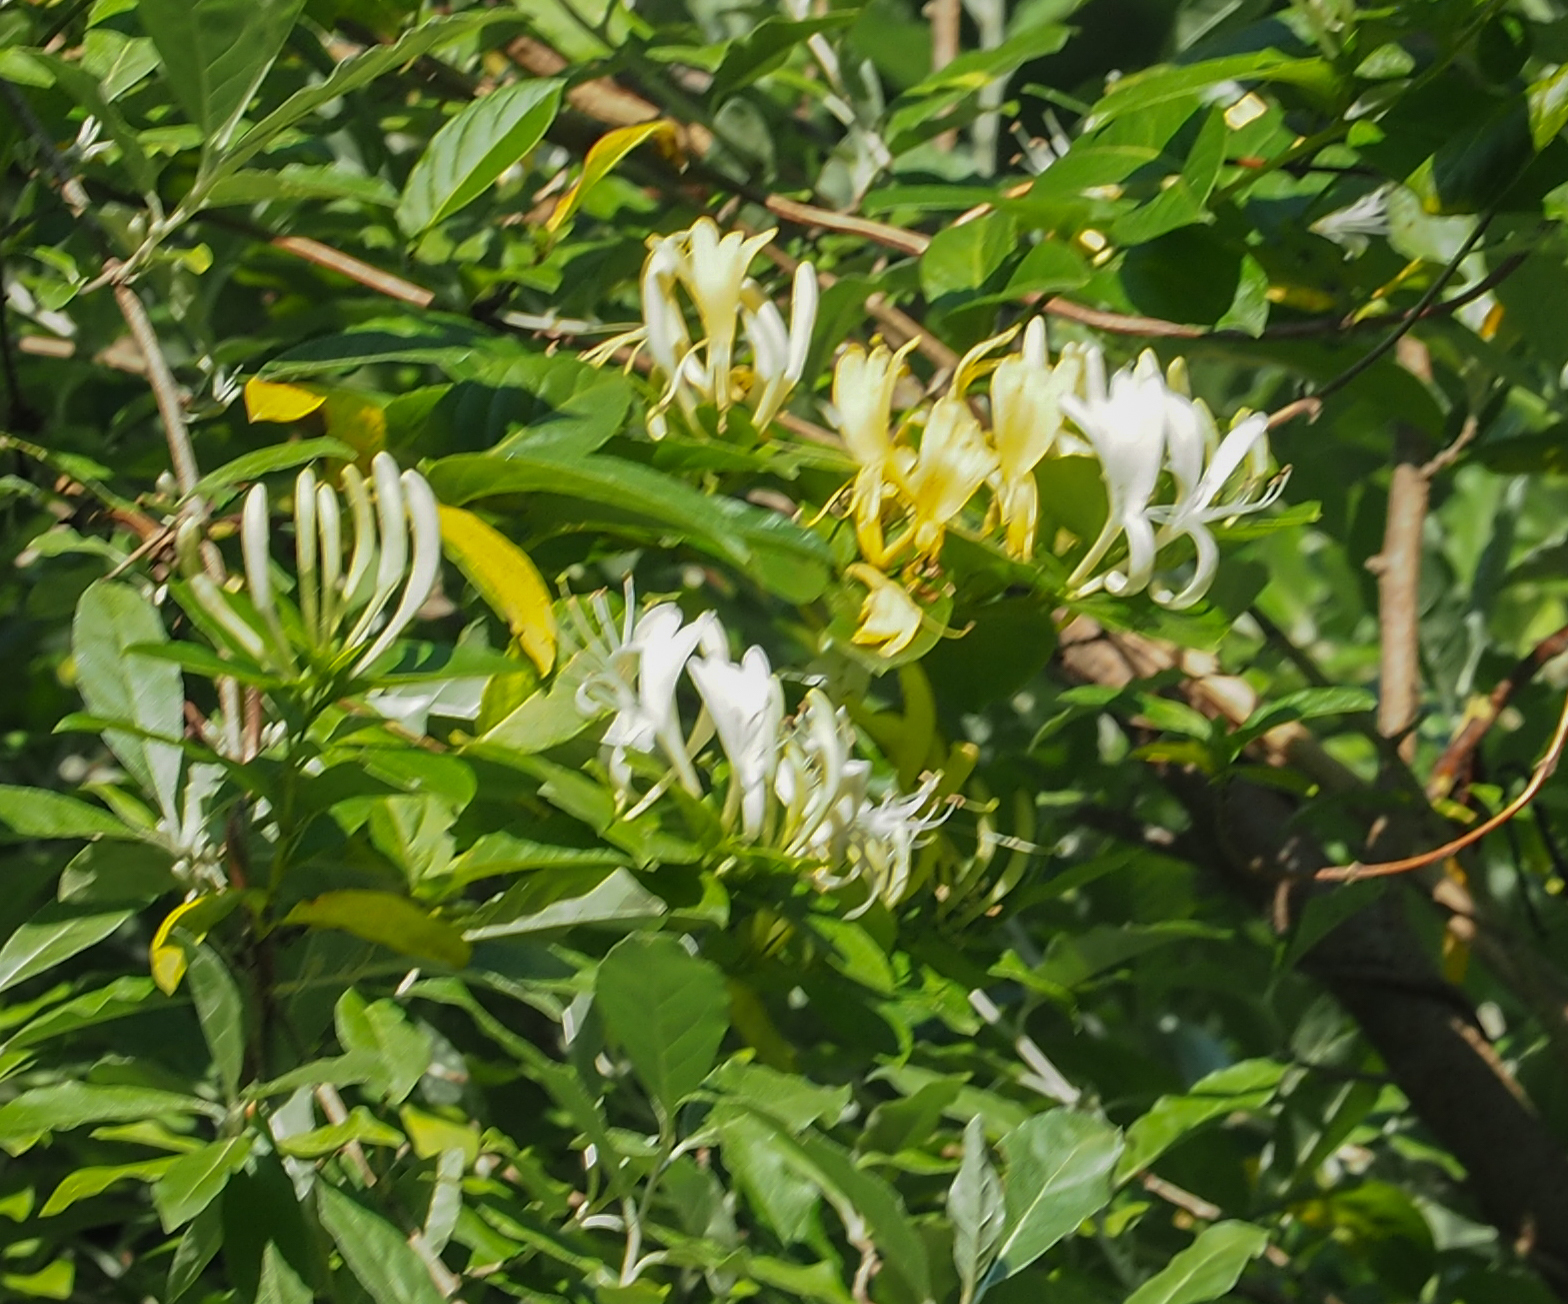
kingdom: Plantae
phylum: Tracheophyta
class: Magnoliopsida
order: Dipsacales
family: Caprifoliaceae
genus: Lonicera
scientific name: Lonicera japonica
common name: Japanese honeysuckle
